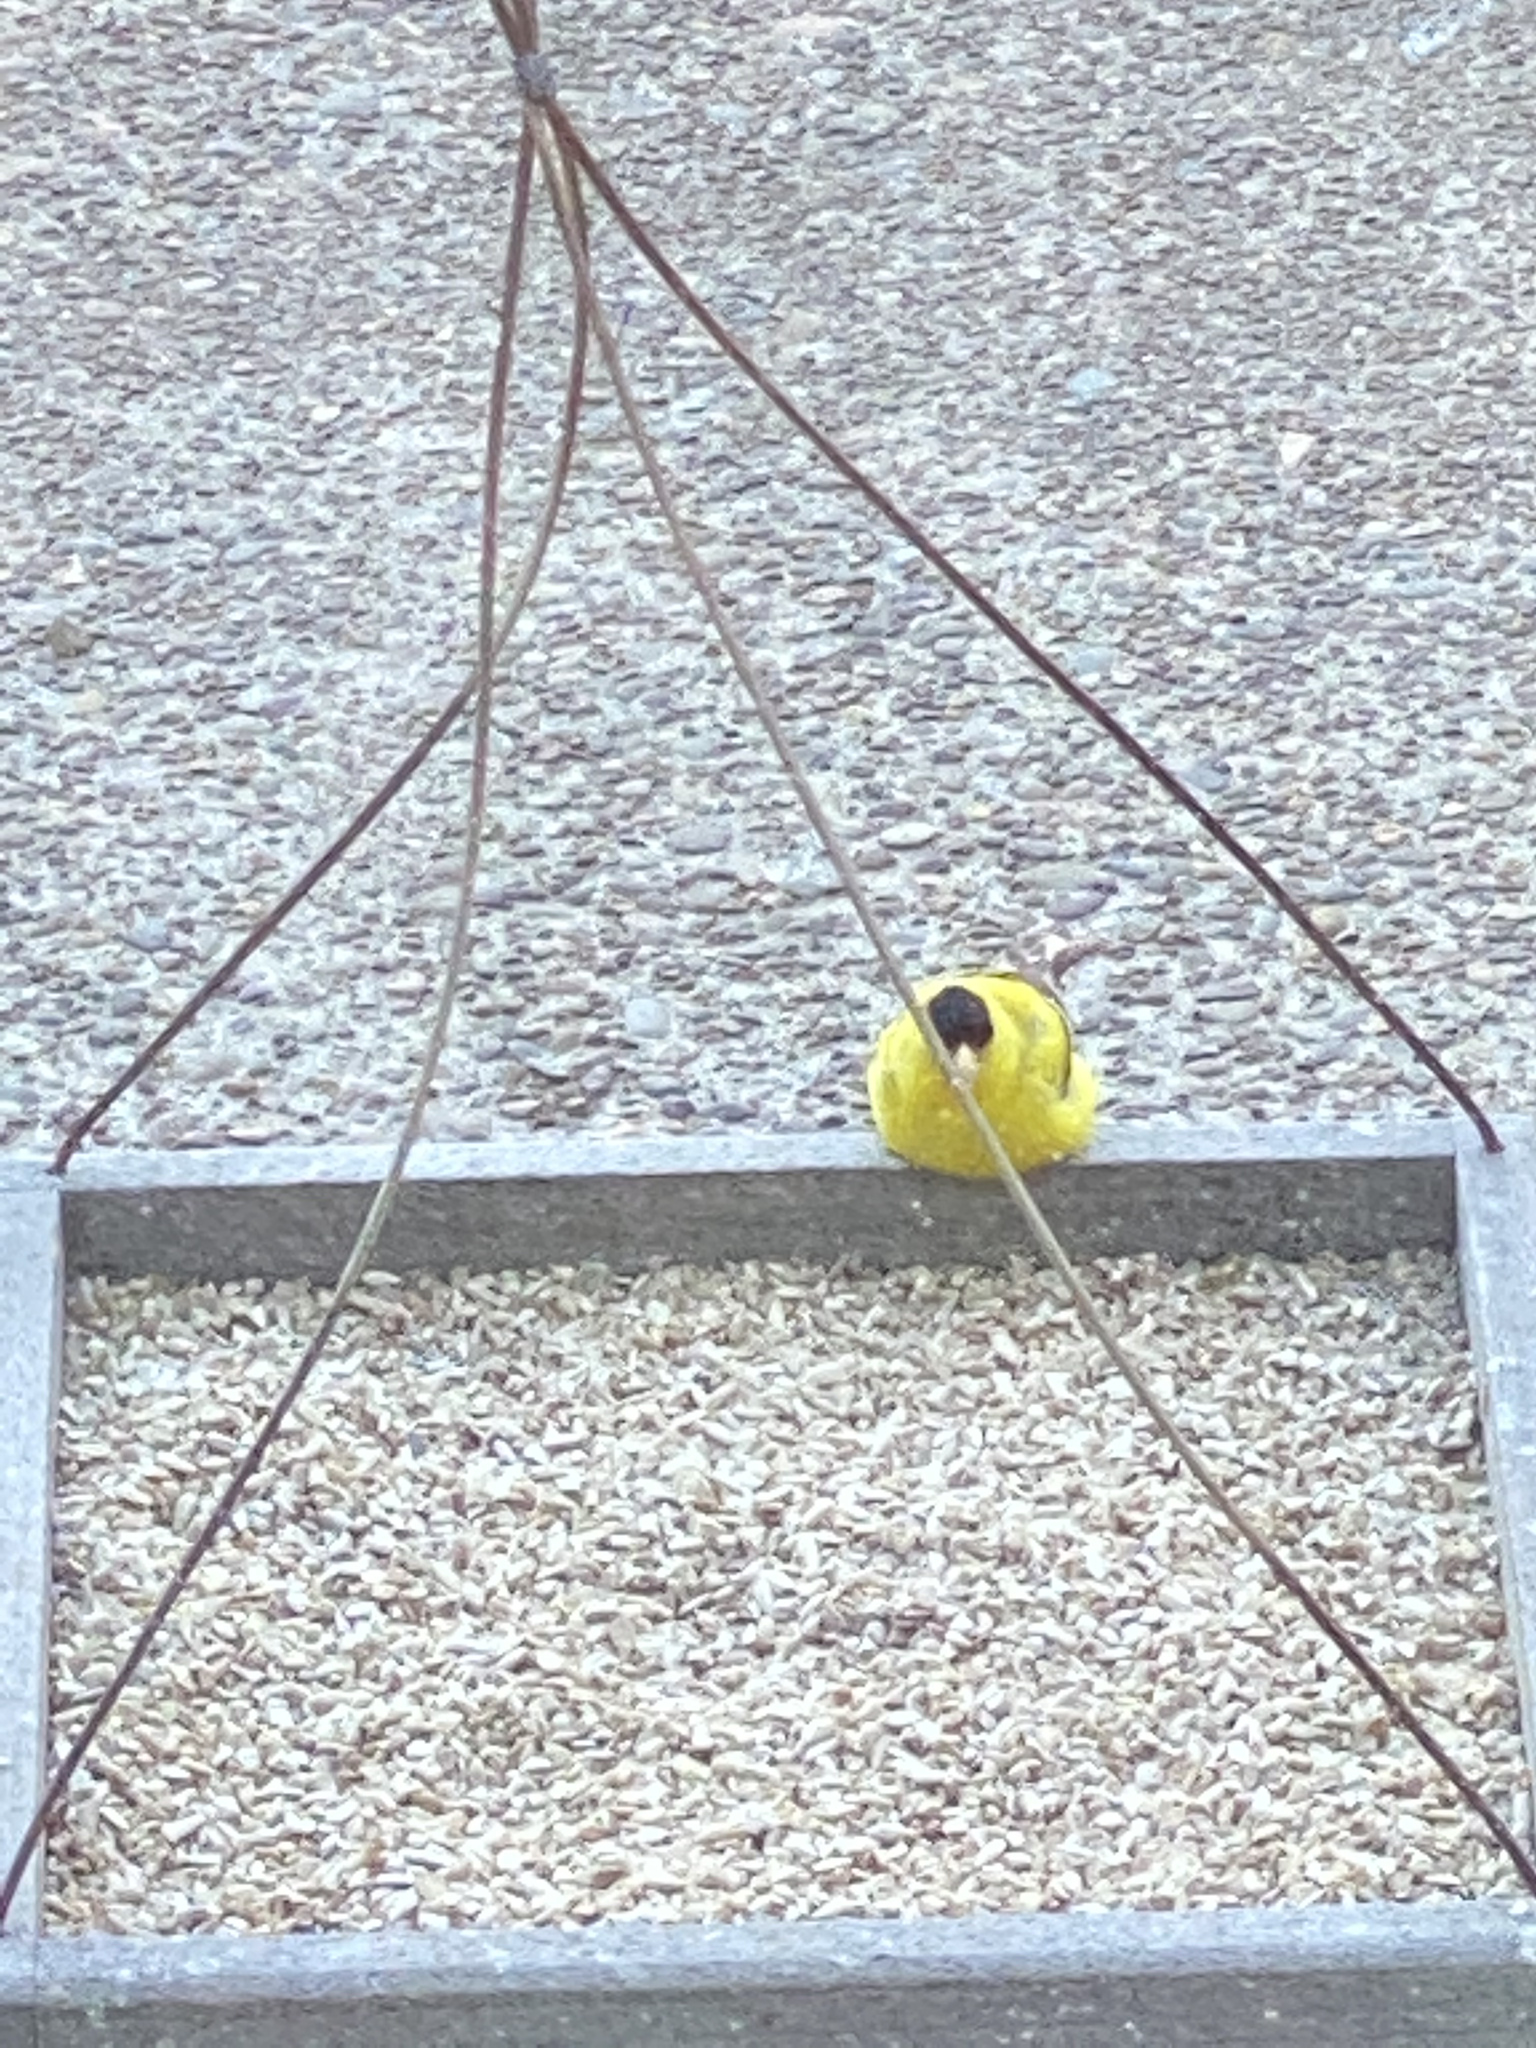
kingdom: Animalia
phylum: Chordata
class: Aves
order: Passeriformes
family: Fringillidae
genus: Spinus
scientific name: Spinus tristis
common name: American goldfinch
